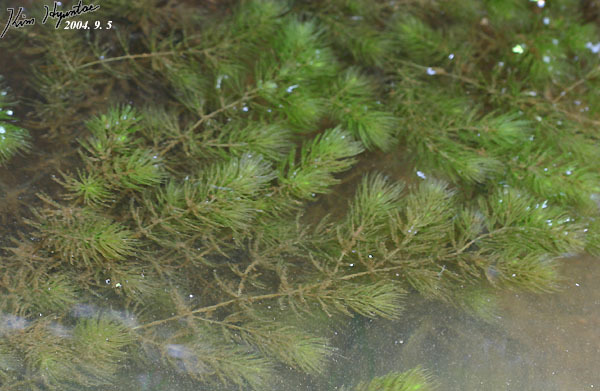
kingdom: Plantae
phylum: Tracheophyta
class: Magnoliopsida
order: Ceratophyllales
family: Ceratophyllaceae
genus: Ceratophyllum
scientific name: Ceratophyllum demersum
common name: Rigid hornwort
